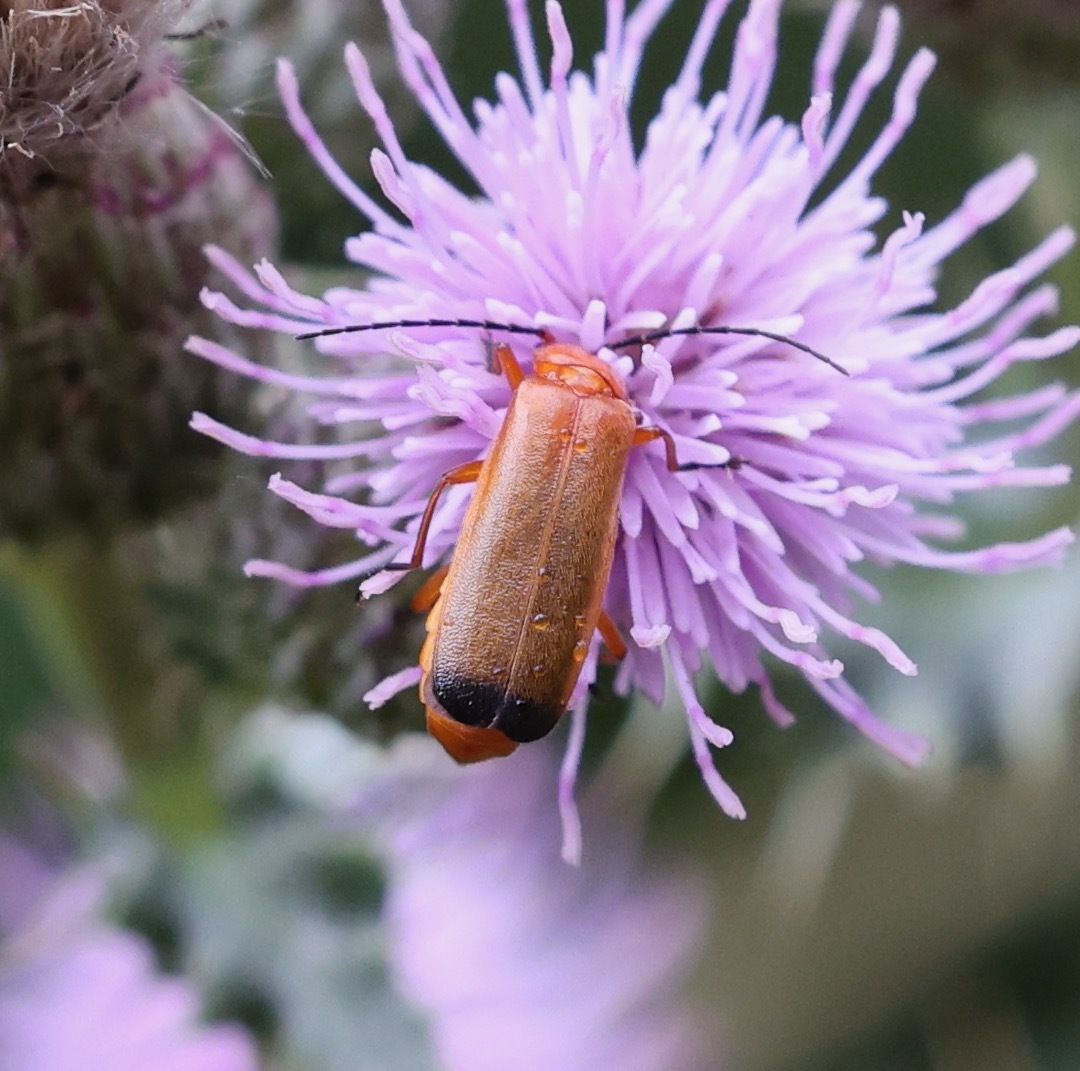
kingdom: Animalia
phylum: Arthropoda
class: Insecta
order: Coleoptera
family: Cantharidae
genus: Rhagonycha
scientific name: Rhagonycha fulva
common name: Common red soldier beetle
